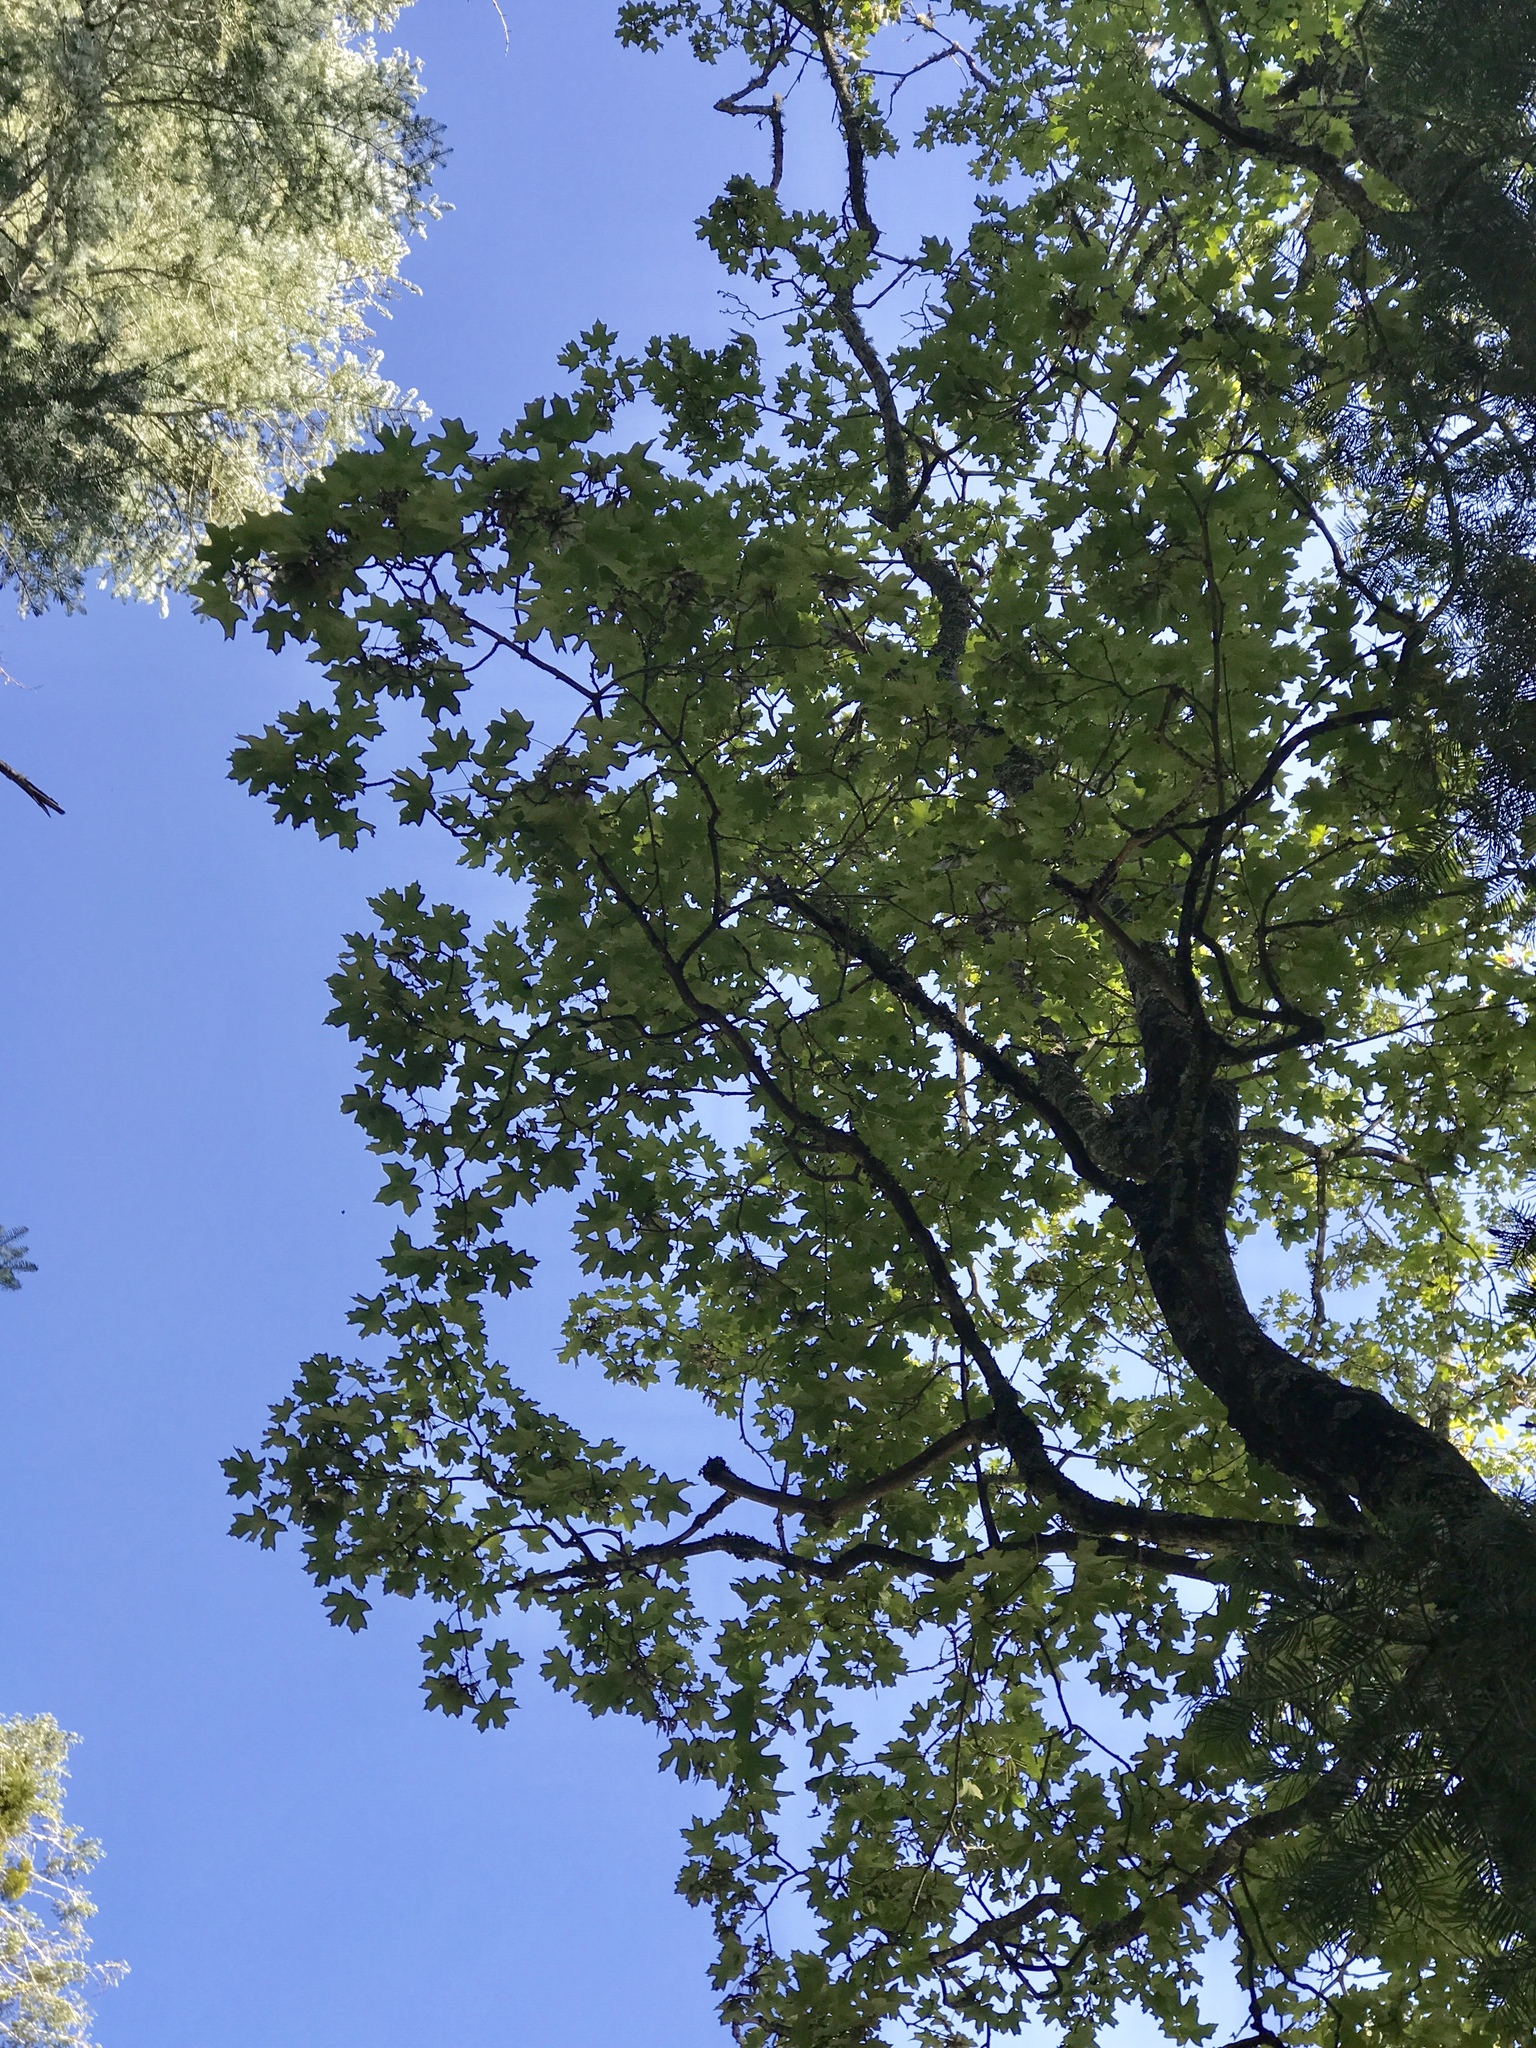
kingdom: Plantae
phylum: Tracheophyta
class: Magnoliopsida
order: Sapindales
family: Sapindaceae
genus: Acer
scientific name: Acer grandidentatum
